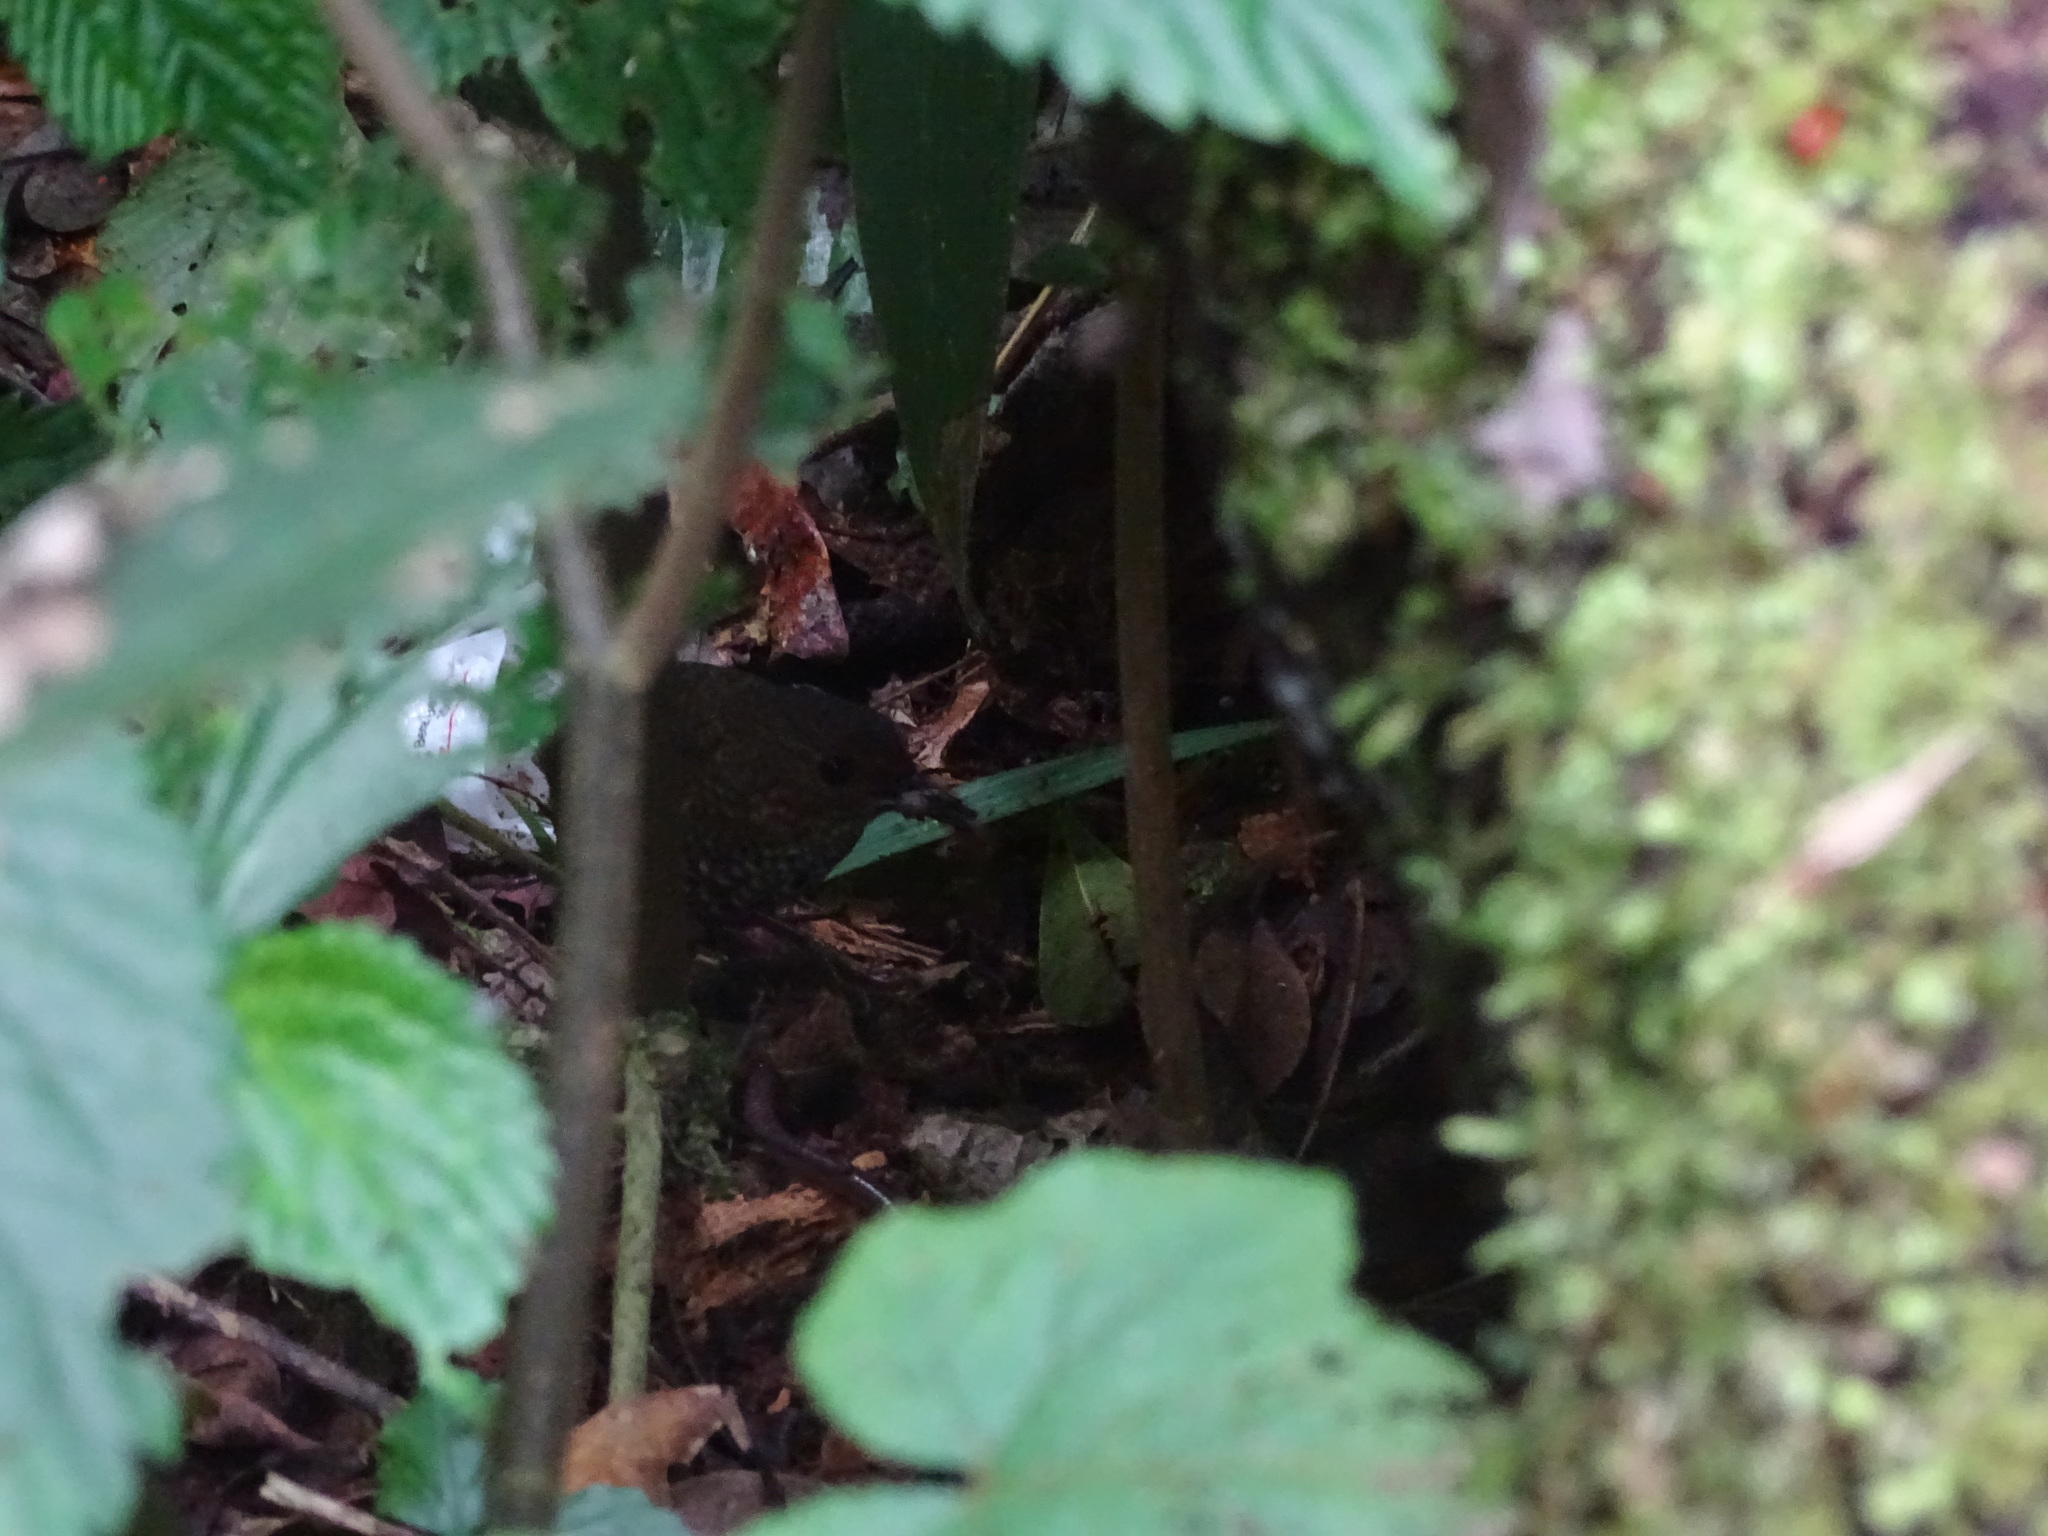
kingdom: Animalia
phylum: Chordata
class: Aves
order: Passeriformes
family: Pnoepygidae
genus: Pnoepyga
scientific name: Pnoepyga pusilla
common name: Pygmy wren-babbler
